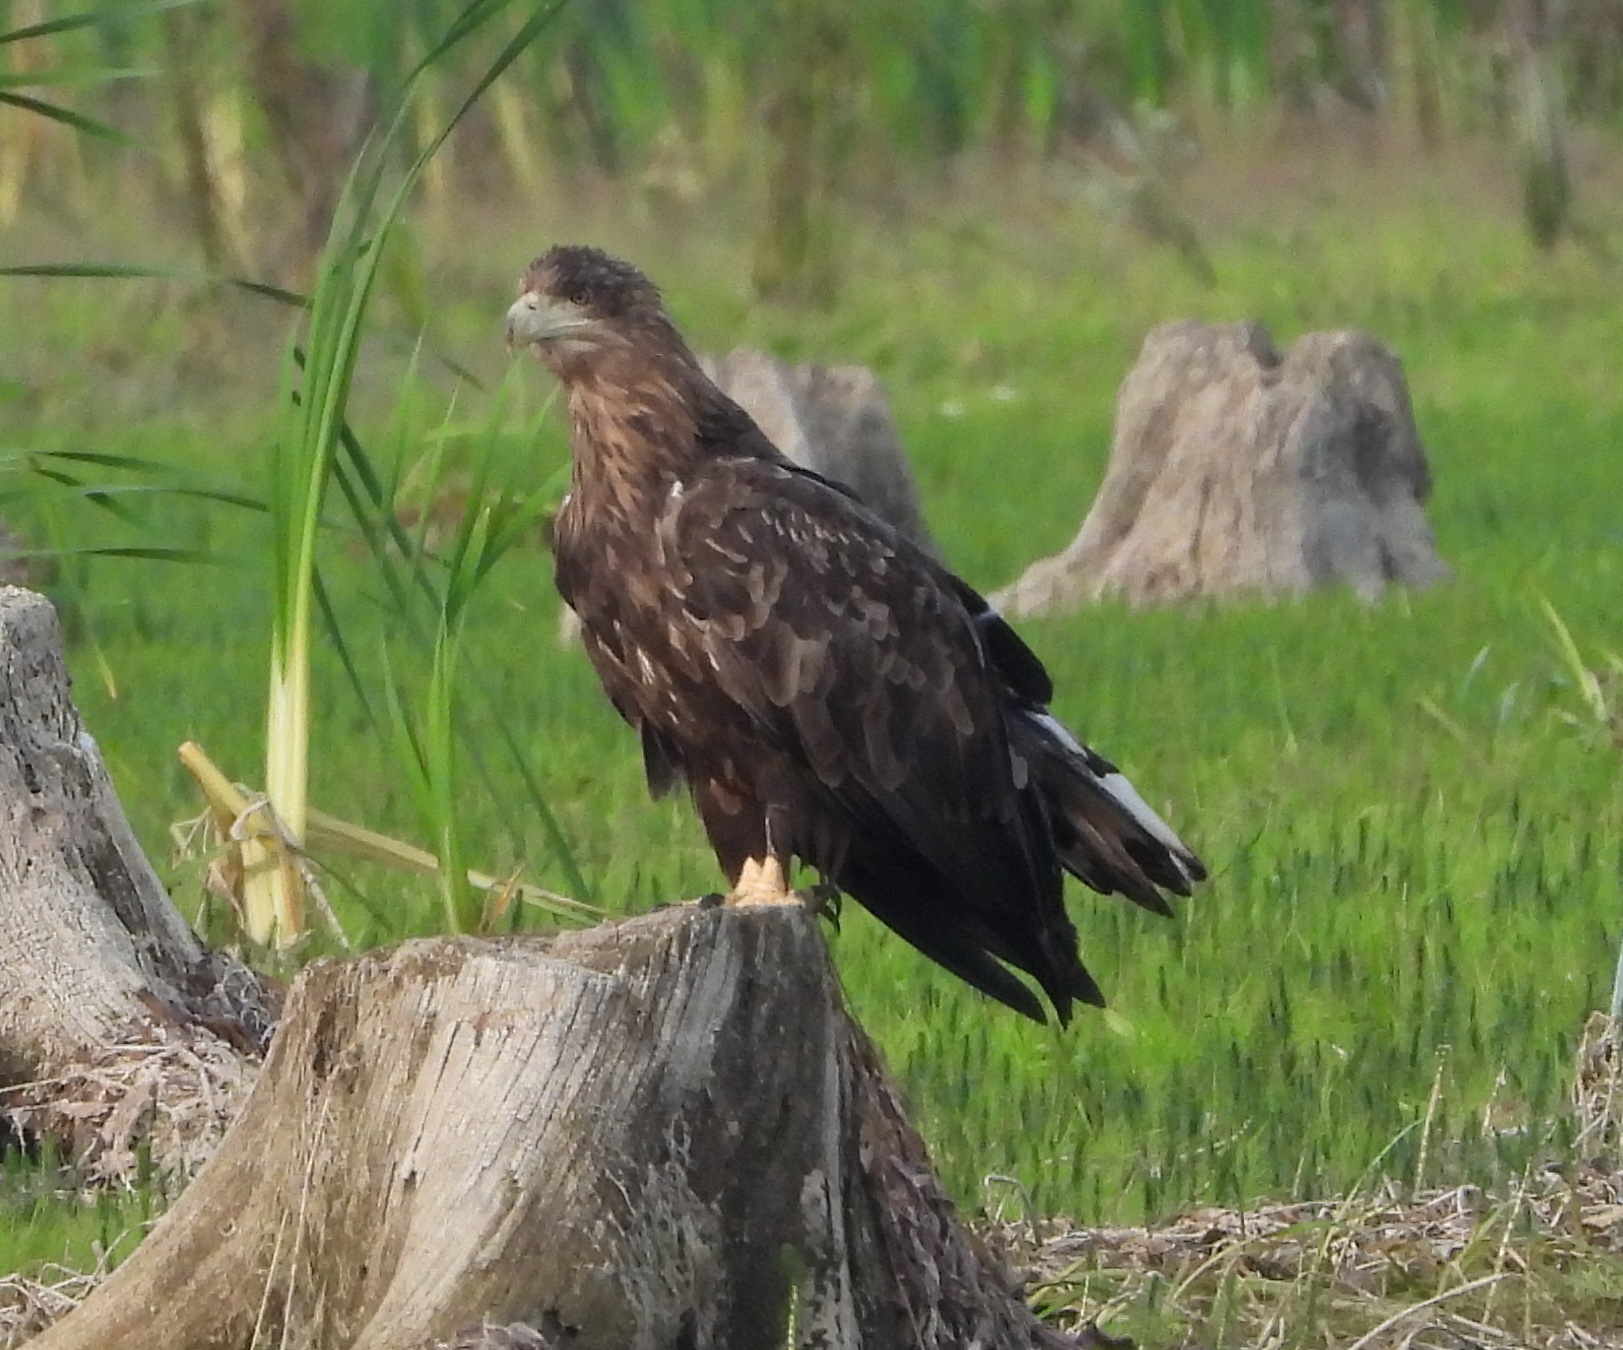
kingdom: Animalia
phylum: Chordata
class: Aves
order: Accipitriformes
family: Accipitridae
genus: Haliaeetus
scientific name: Haliaeetus albicilla
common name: White-tailed eagle
